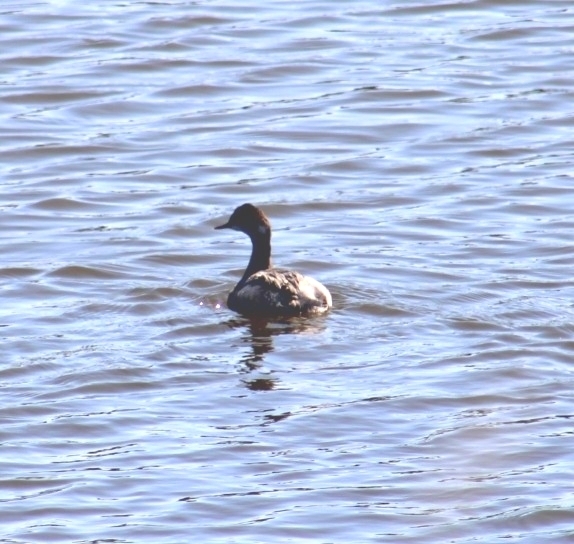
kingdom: Animalia
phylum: Chordata
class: Aves
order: Podicipediformes
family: Podicipedidae
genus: Podiceps
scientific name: Podiceps nigricollis
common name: Black-necked grebe
